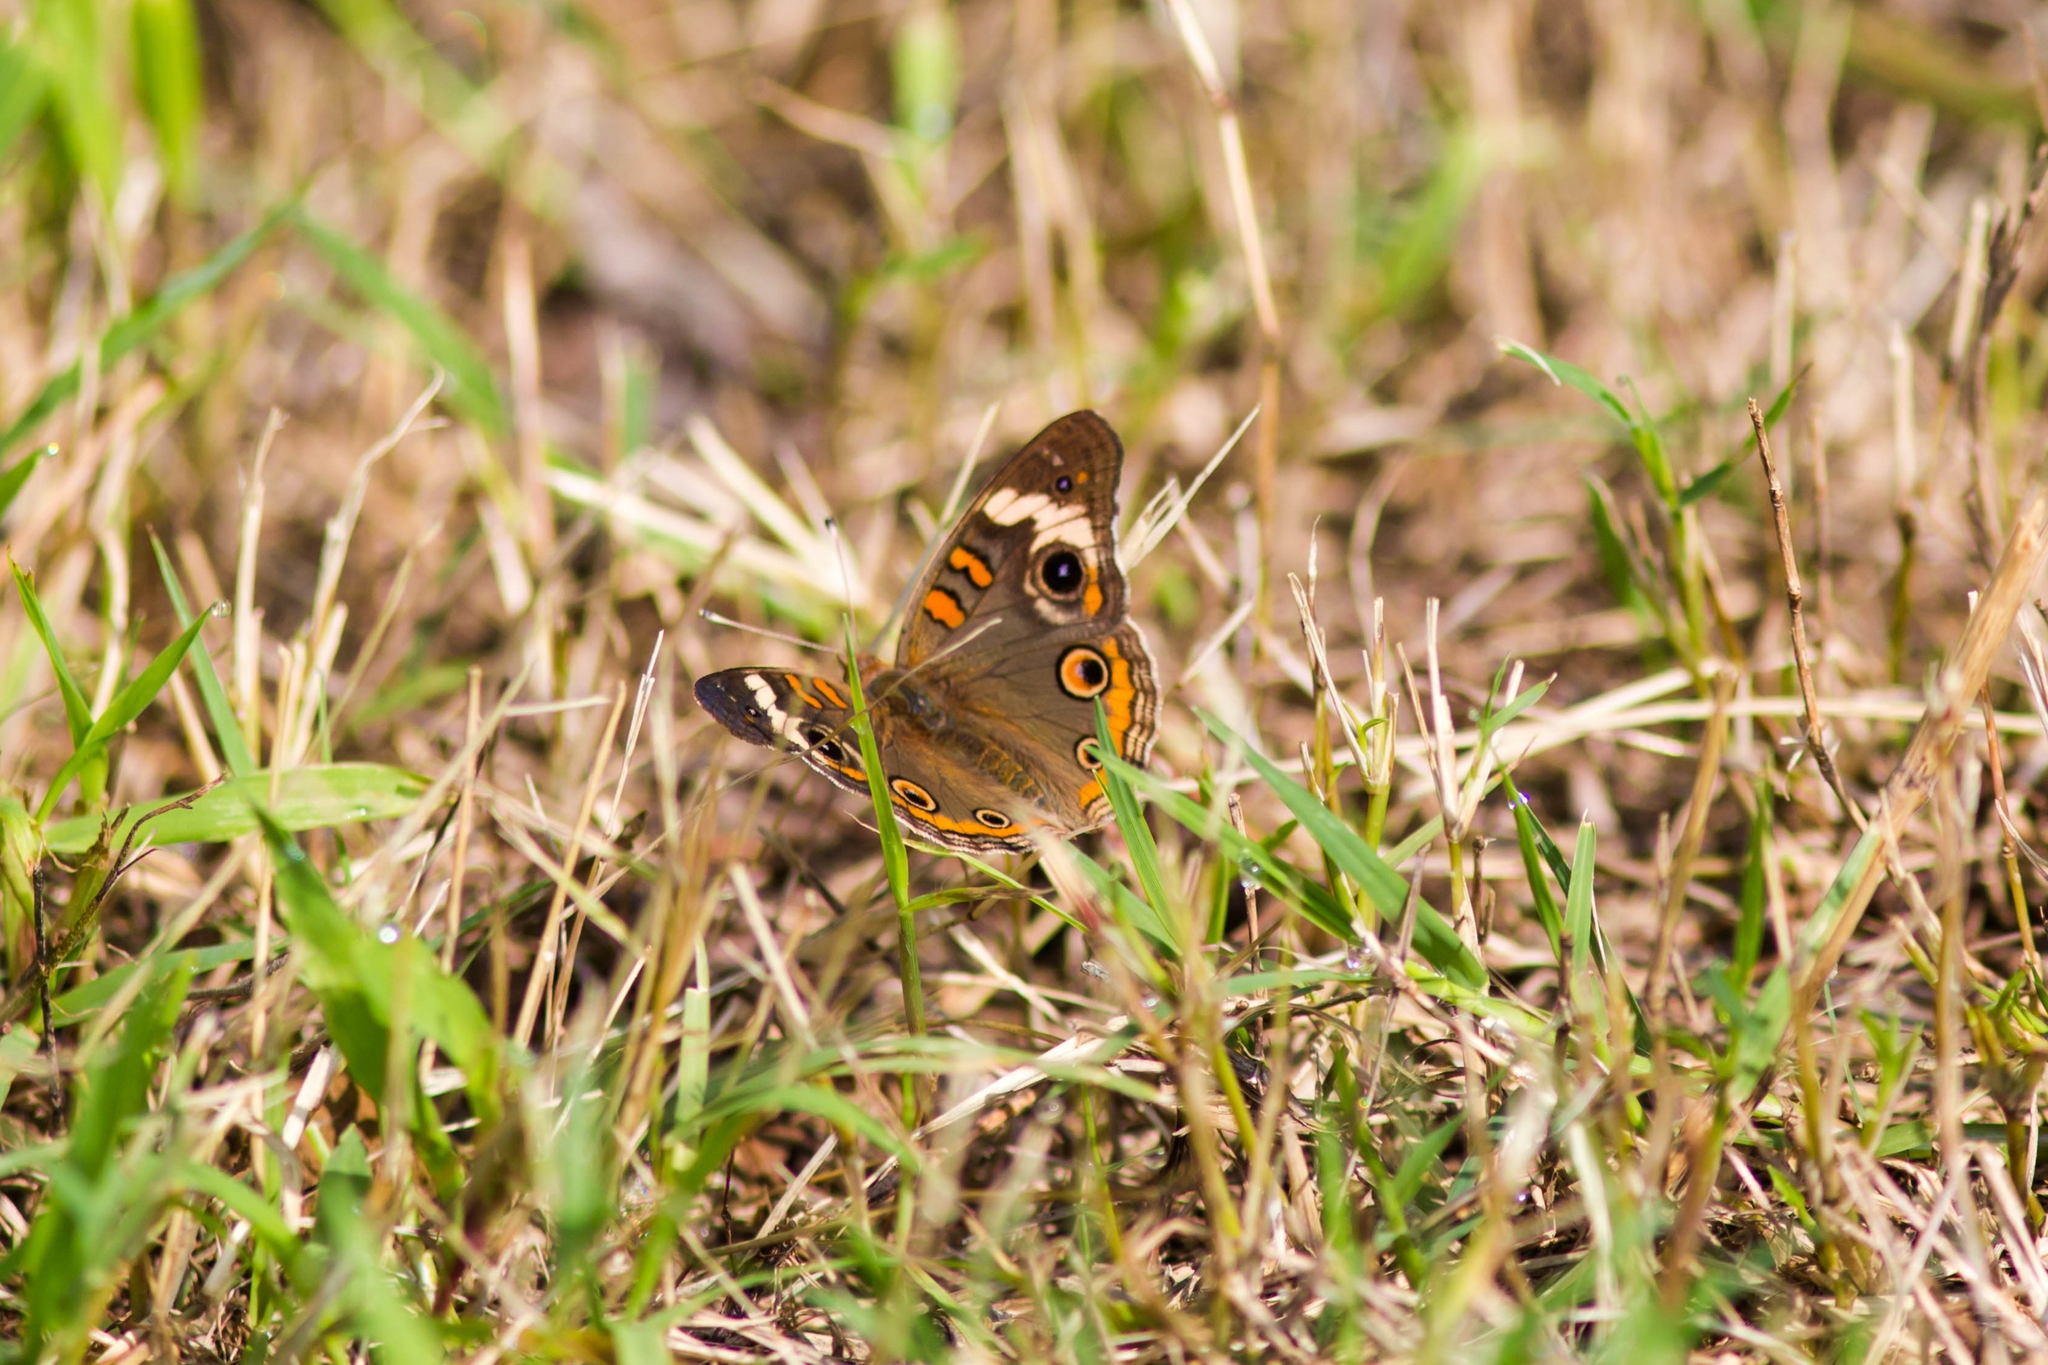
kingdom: Animalia
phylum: Arthropoda
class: Insecta
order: Lepidoptera
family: Nymphalidae
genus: Junonia
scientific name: Junonia coenia
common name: Common buckeye
